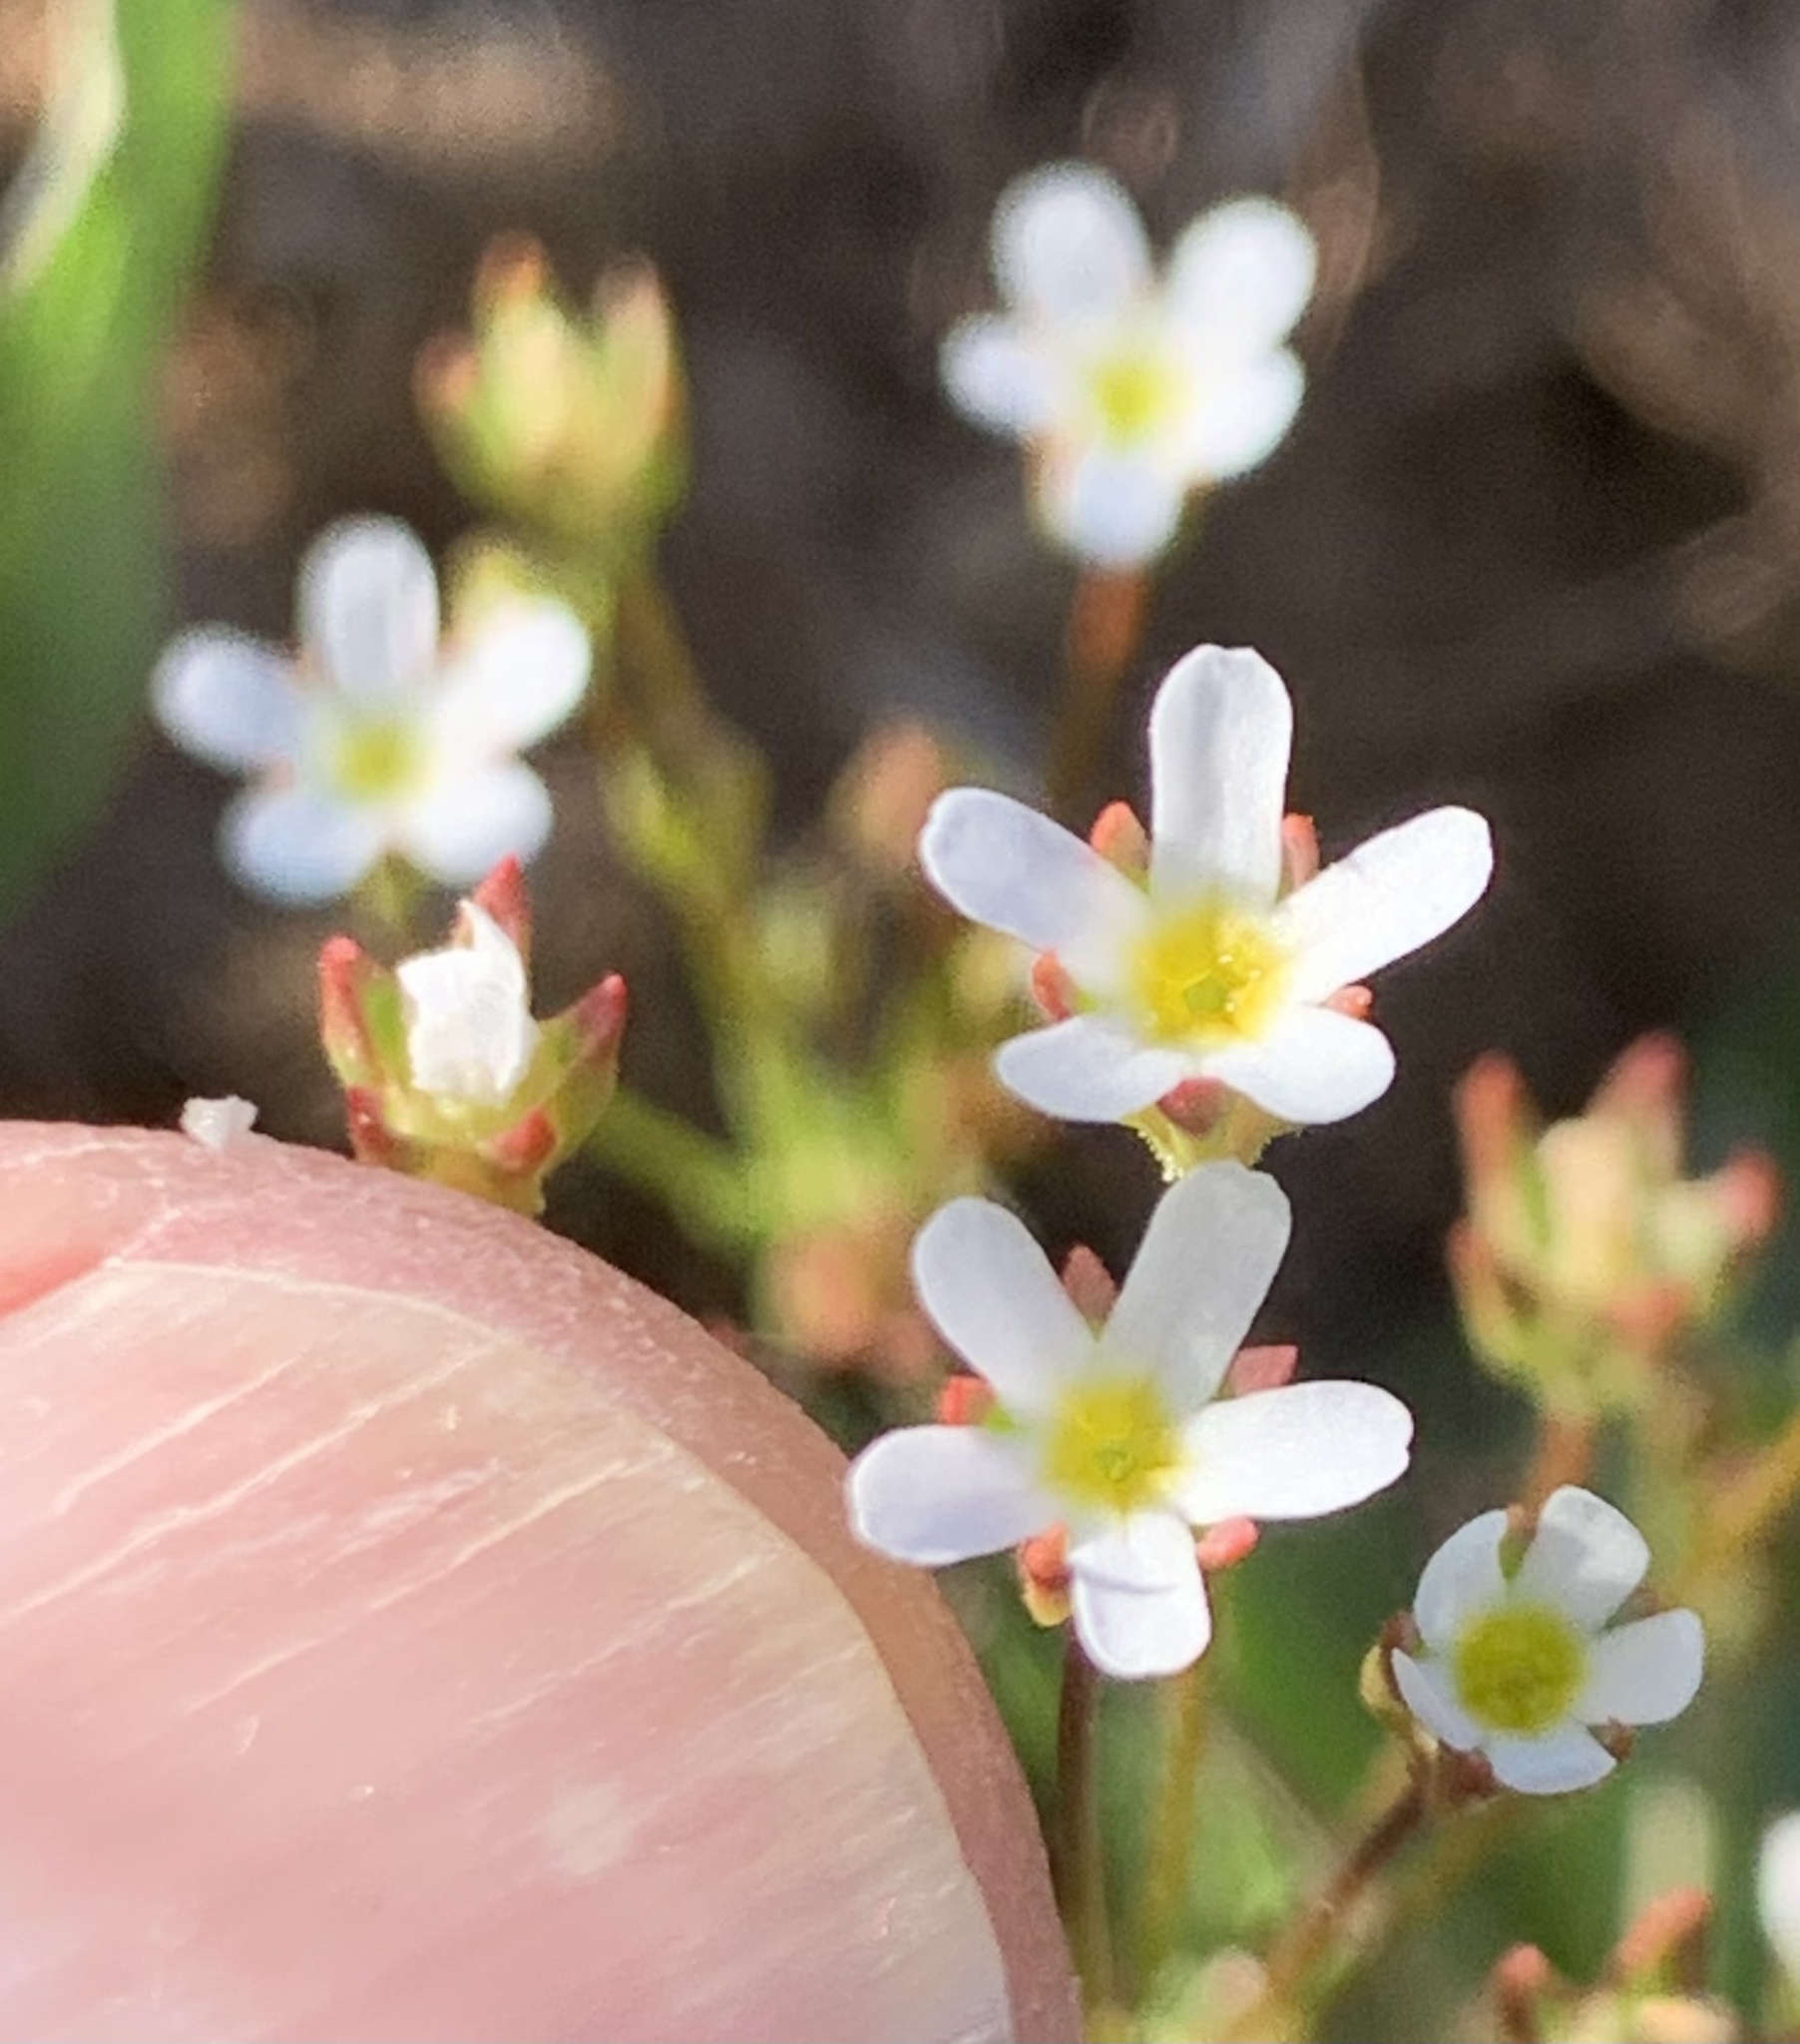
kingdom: Plantae
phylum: Tracheophyta
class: Magnoliopsida
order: Ericales
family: Primulaceae
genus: Androsace
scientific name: Androsace septentrionalis
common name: Hairy northern fairy-candelabra
